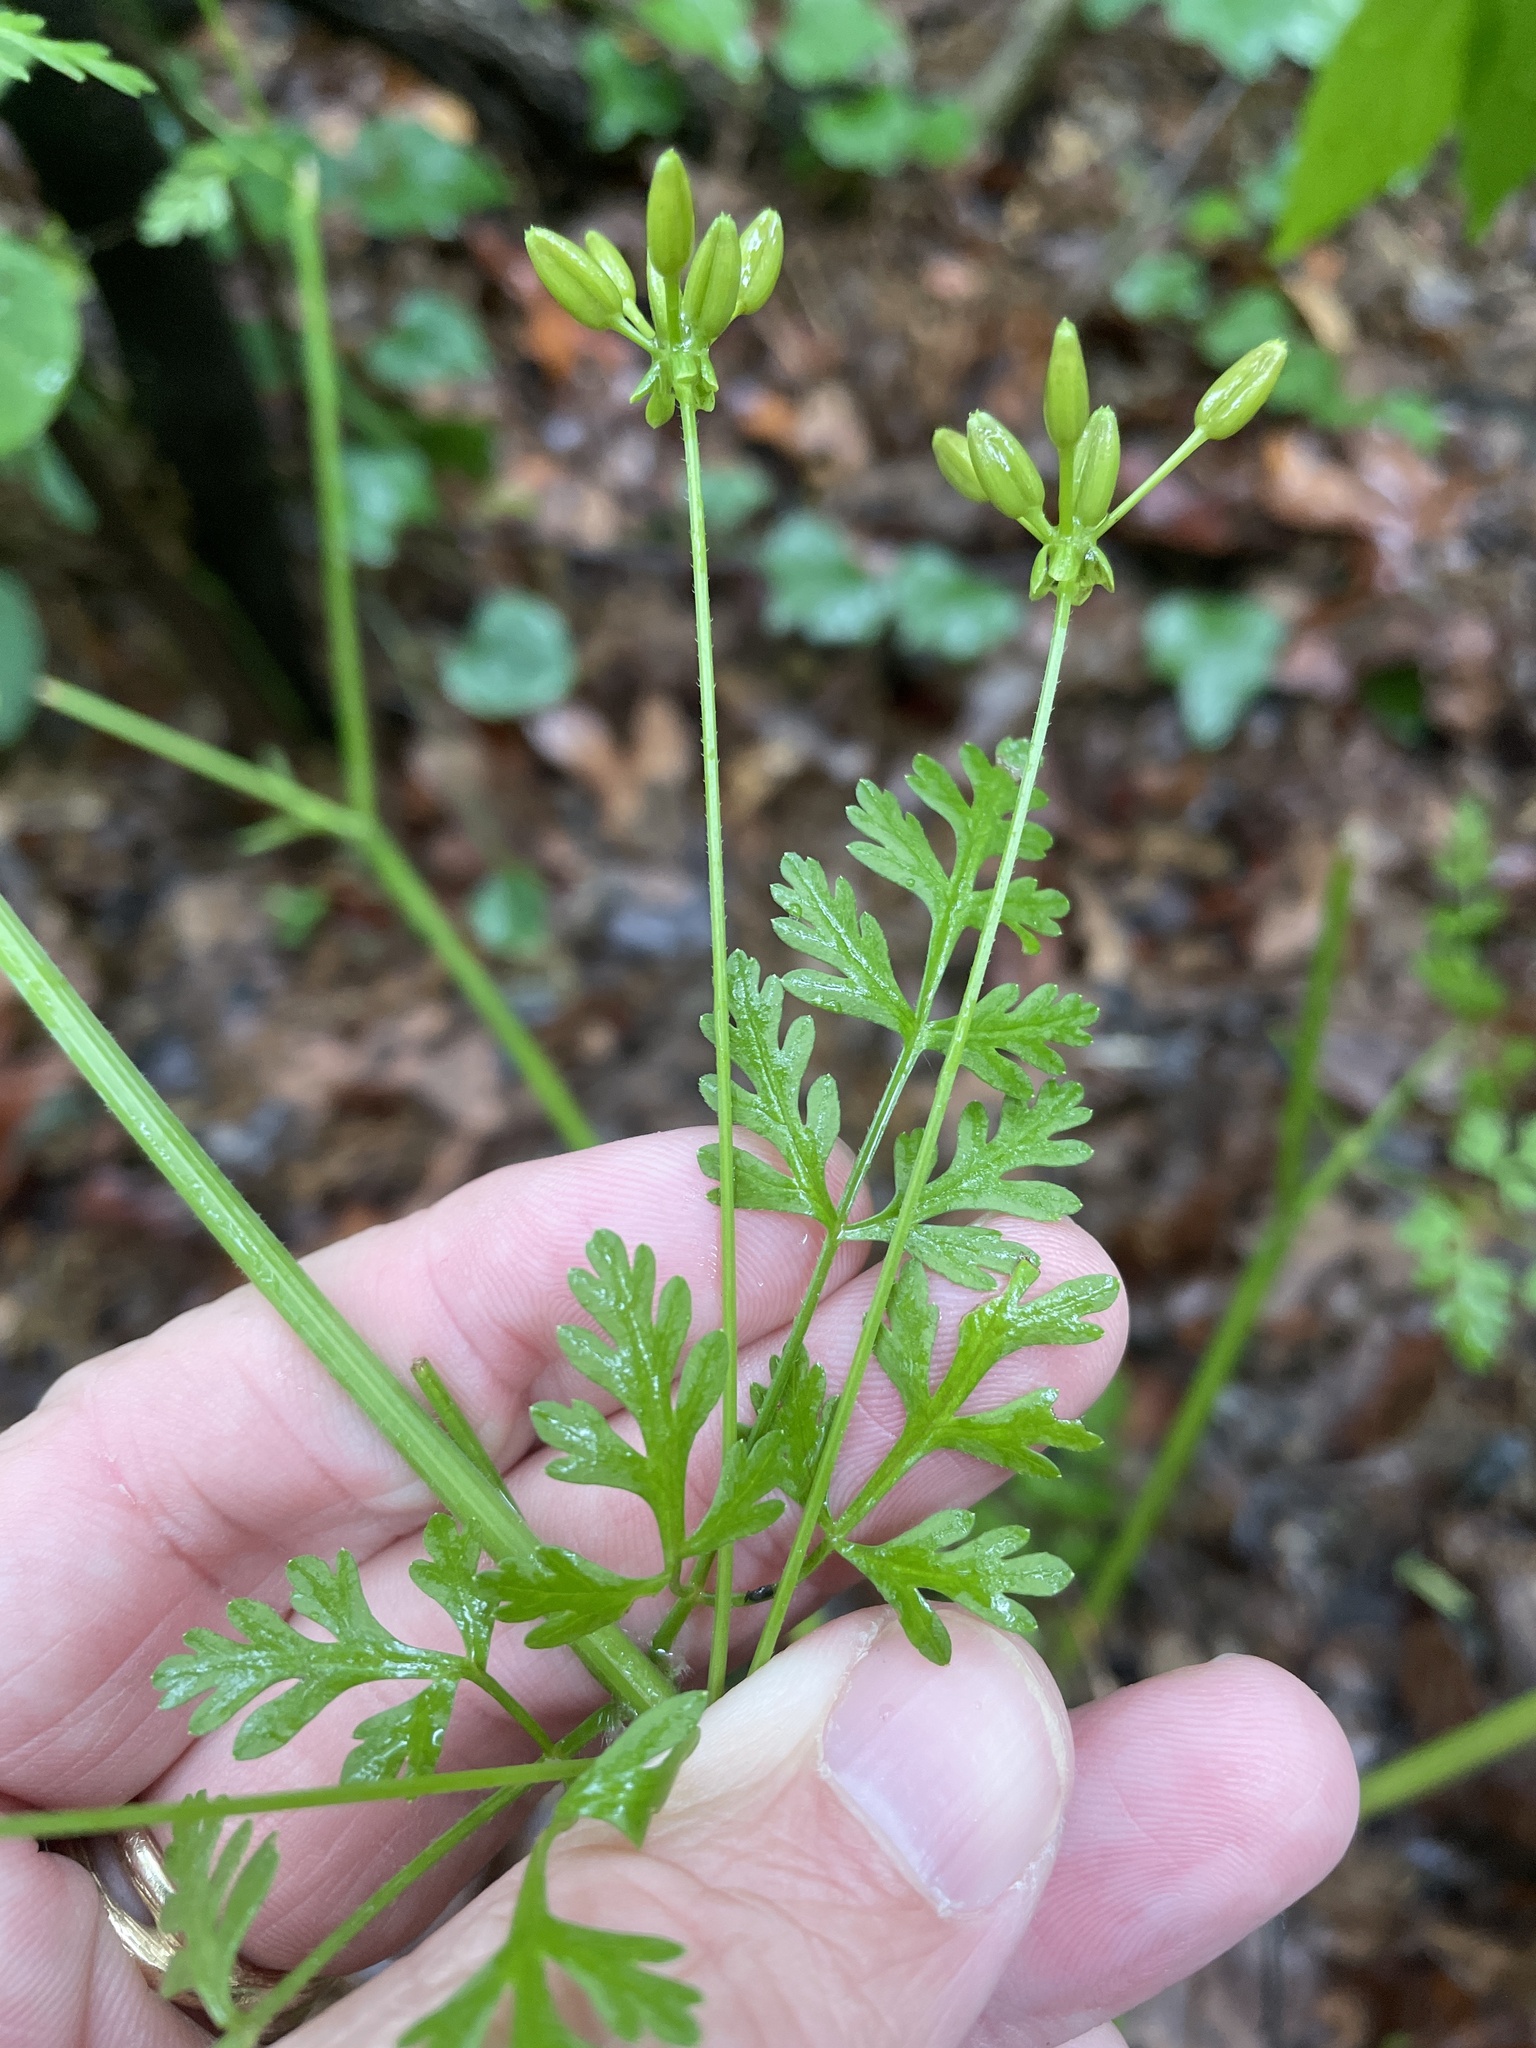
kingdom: Plantae
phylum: Tracheophyta
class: Magnoliopsida
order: Apiales
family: Apiaceae
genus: Chaerophyllum
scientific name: Chaerophyllum tainturieri
